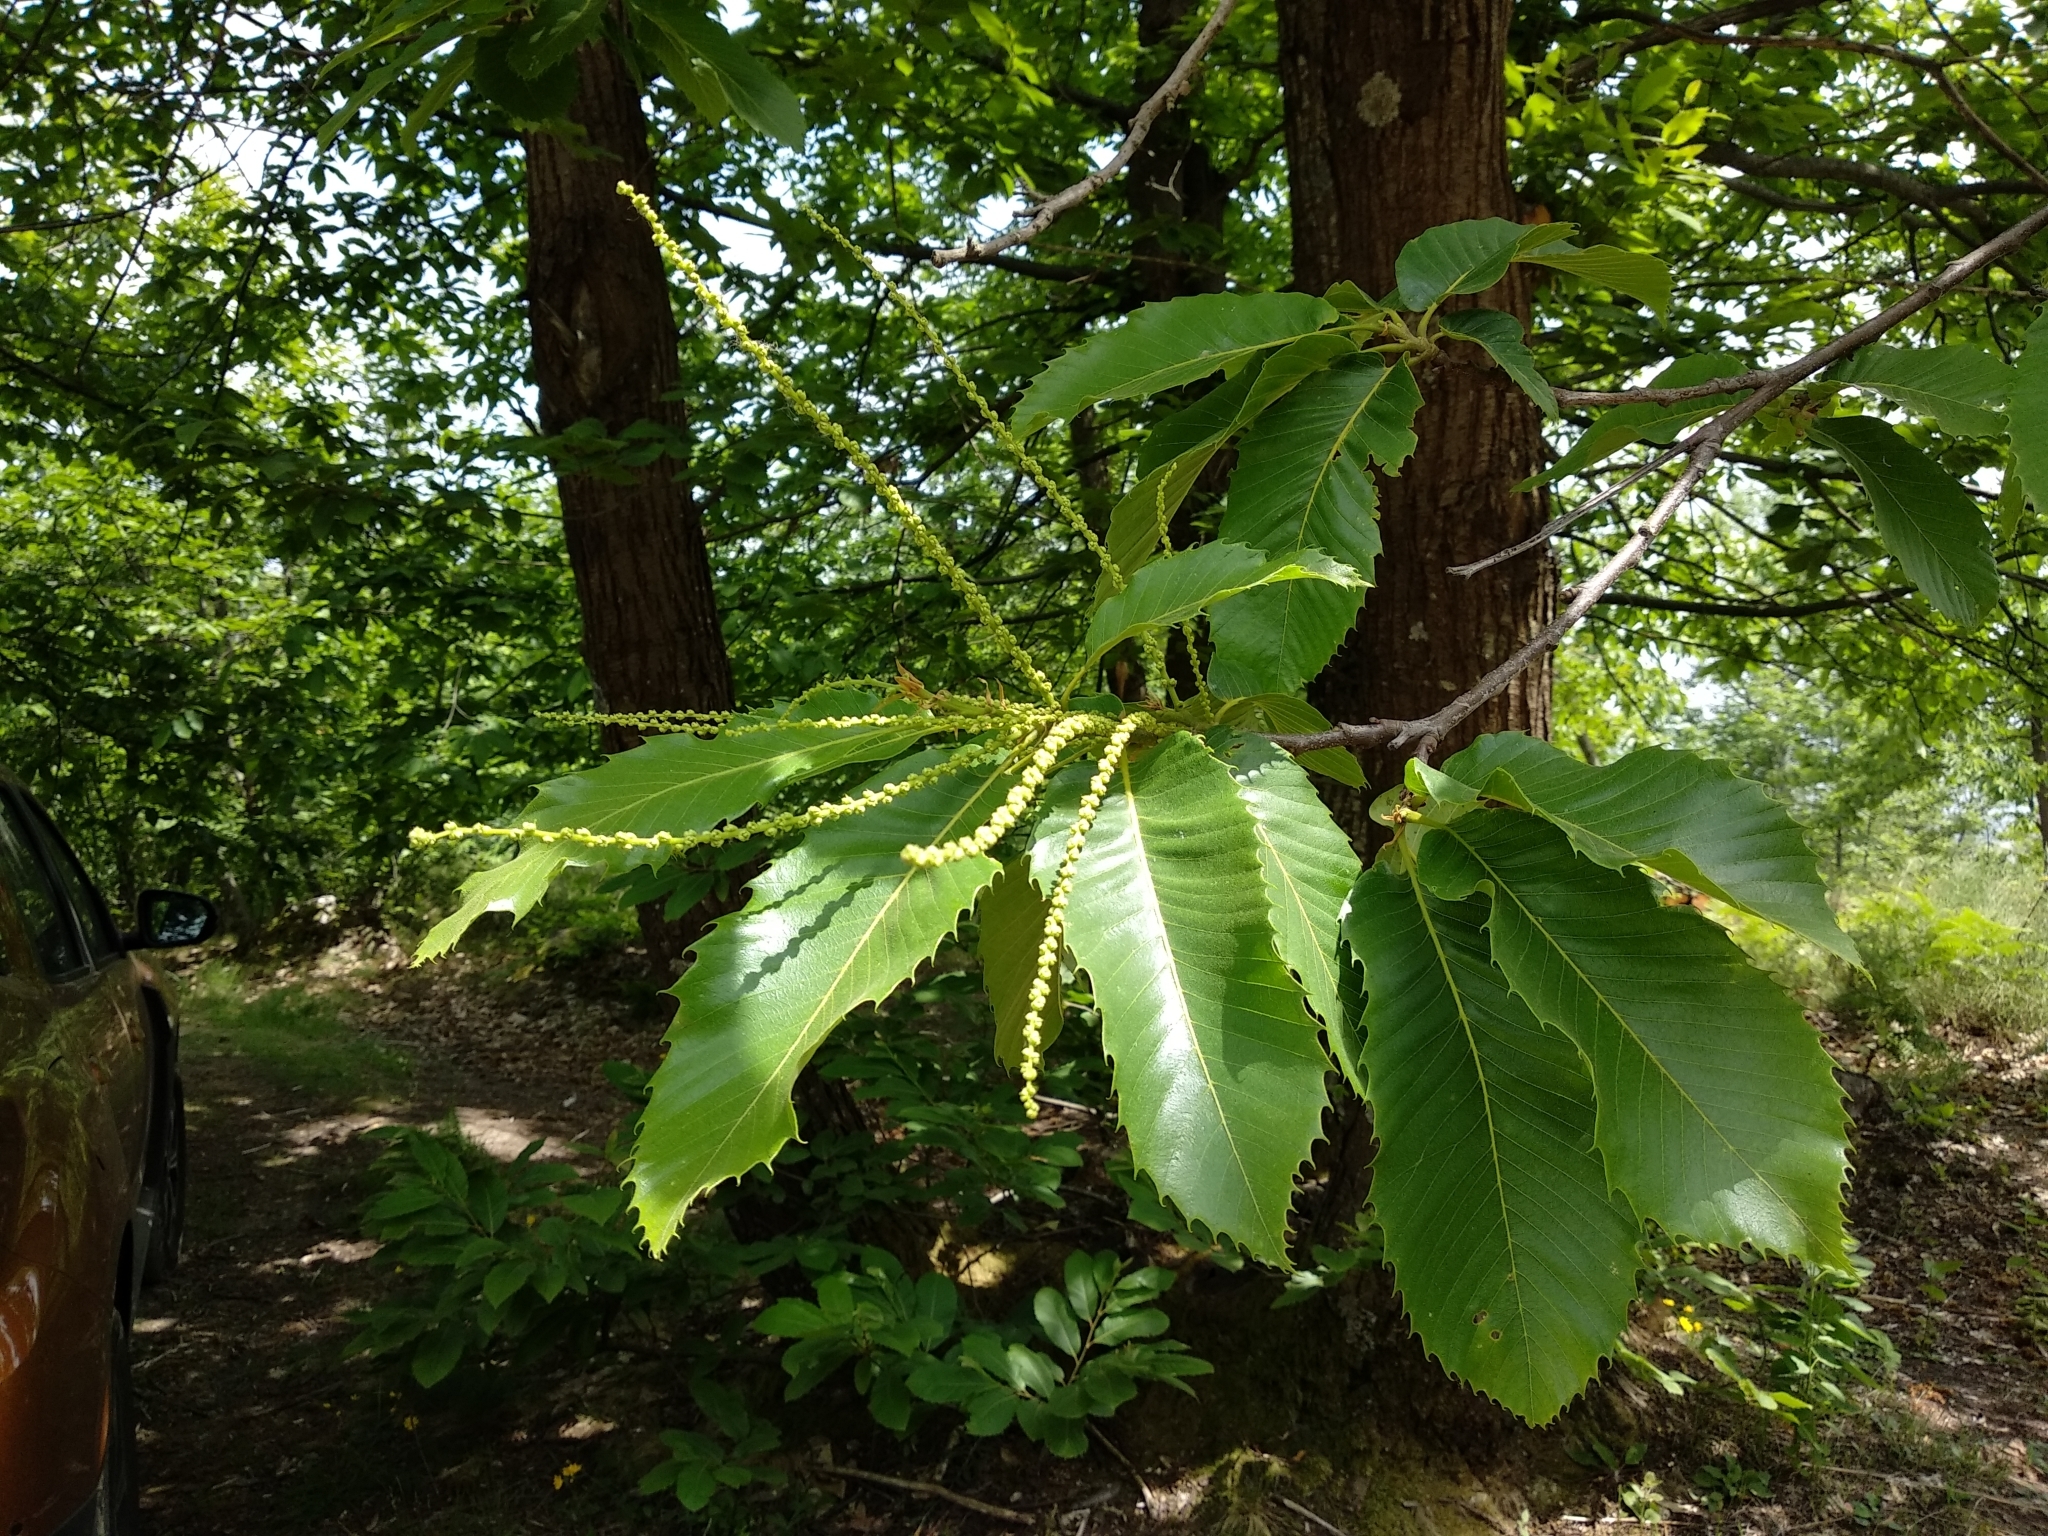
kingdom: Plantae
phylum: Tracheophyta
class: Magnoliopsida
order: Fagales
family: Fagaceae
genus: Castanea
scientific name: Castanea sativa
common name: Sweet chestnut
